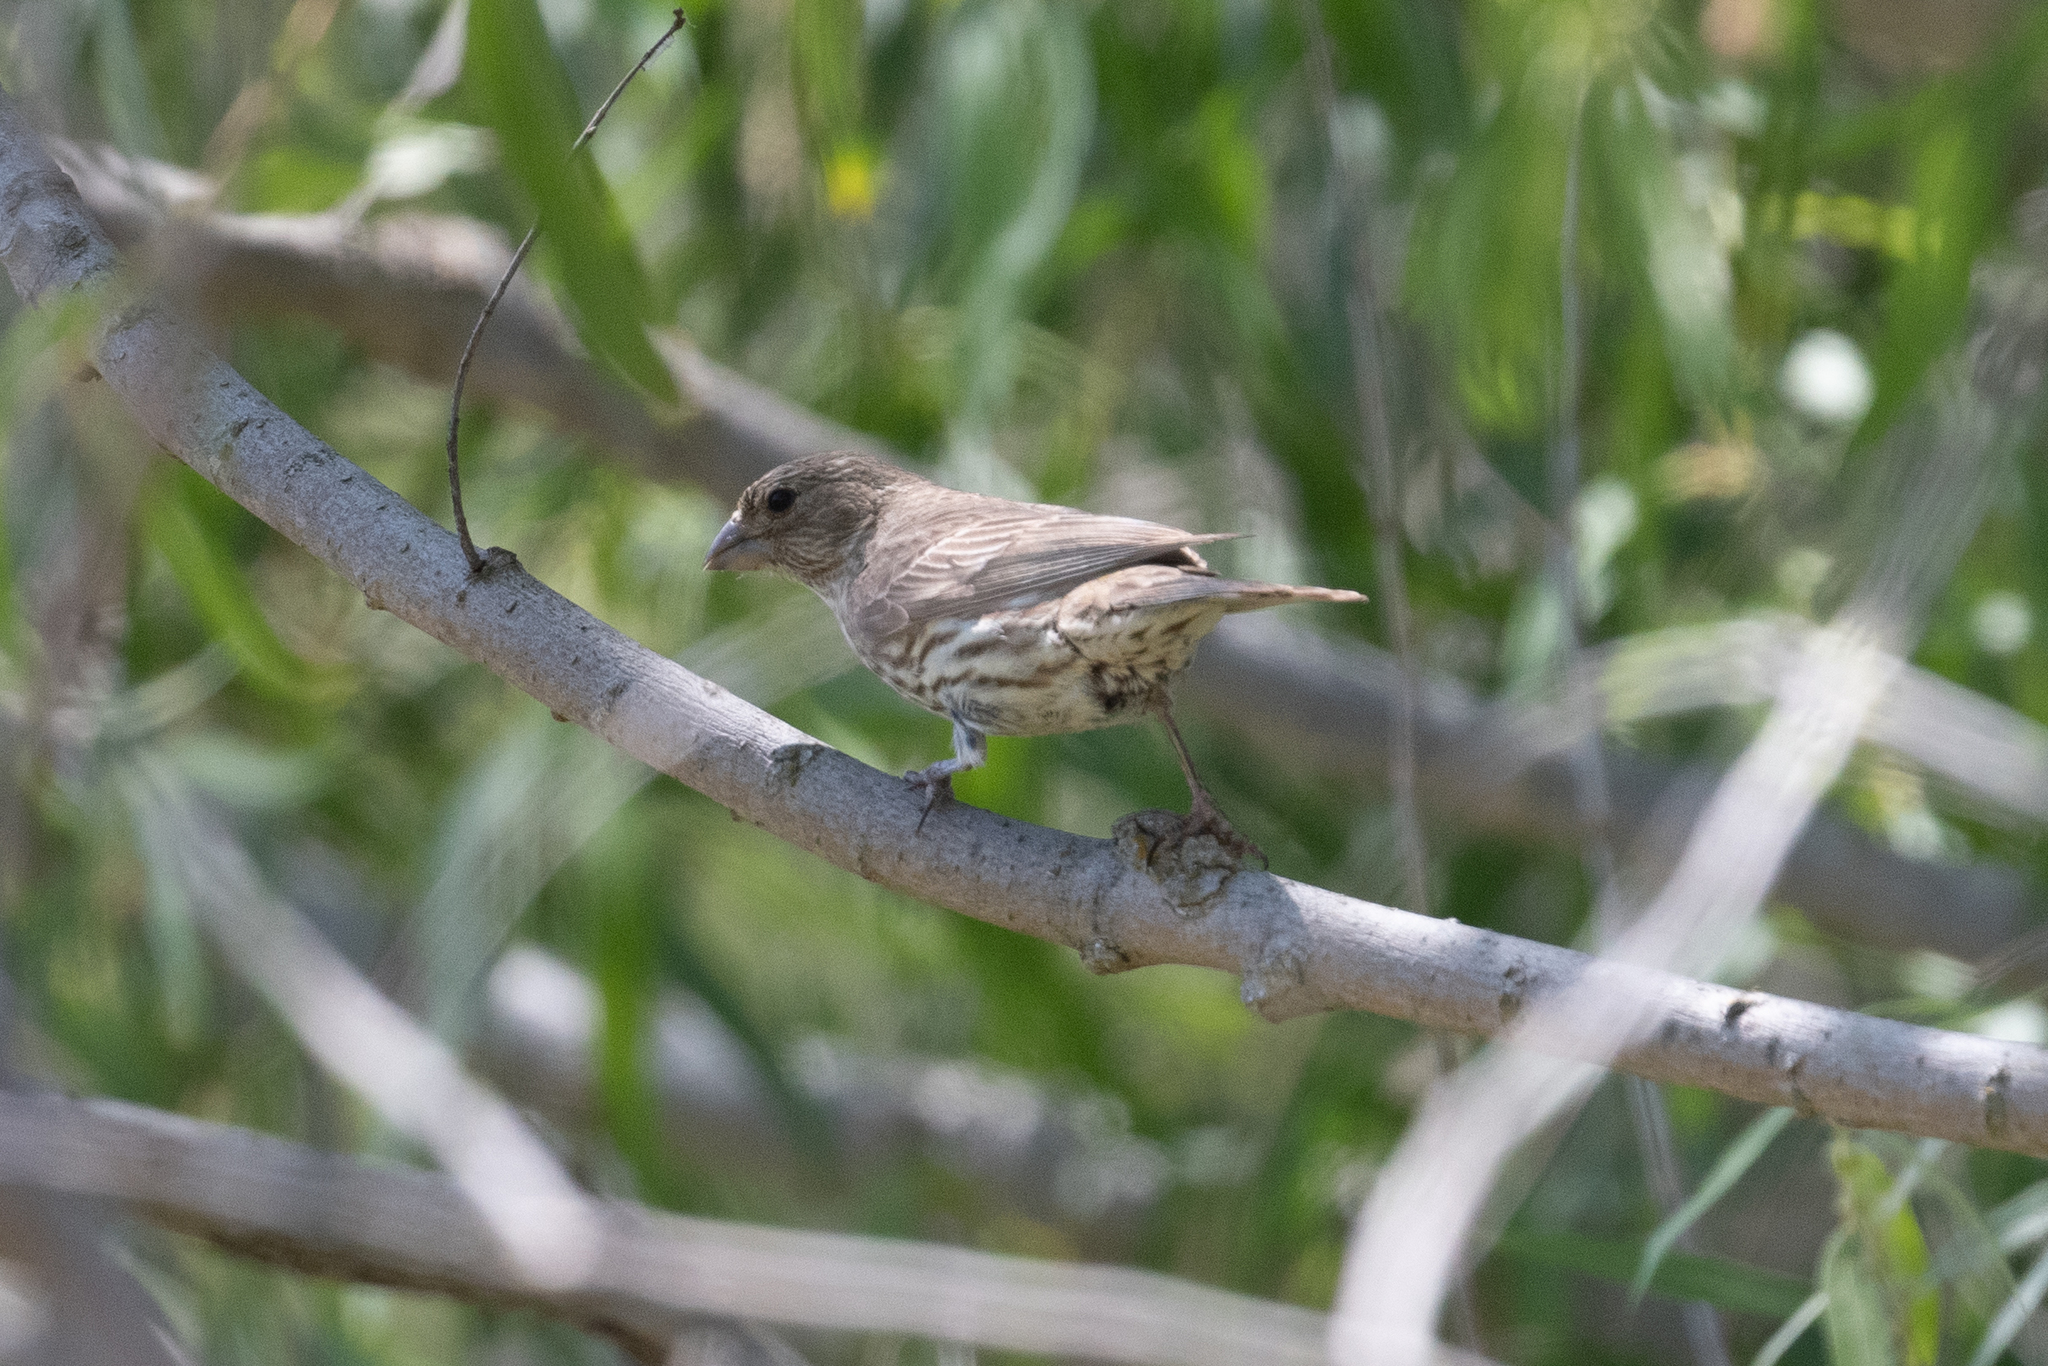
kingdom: Animalia
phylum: Chordata
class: Aves
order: Passeriformes
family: Fringillidae
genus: Haemorhous
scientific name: Haemorhous mexicanus
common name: House finch
